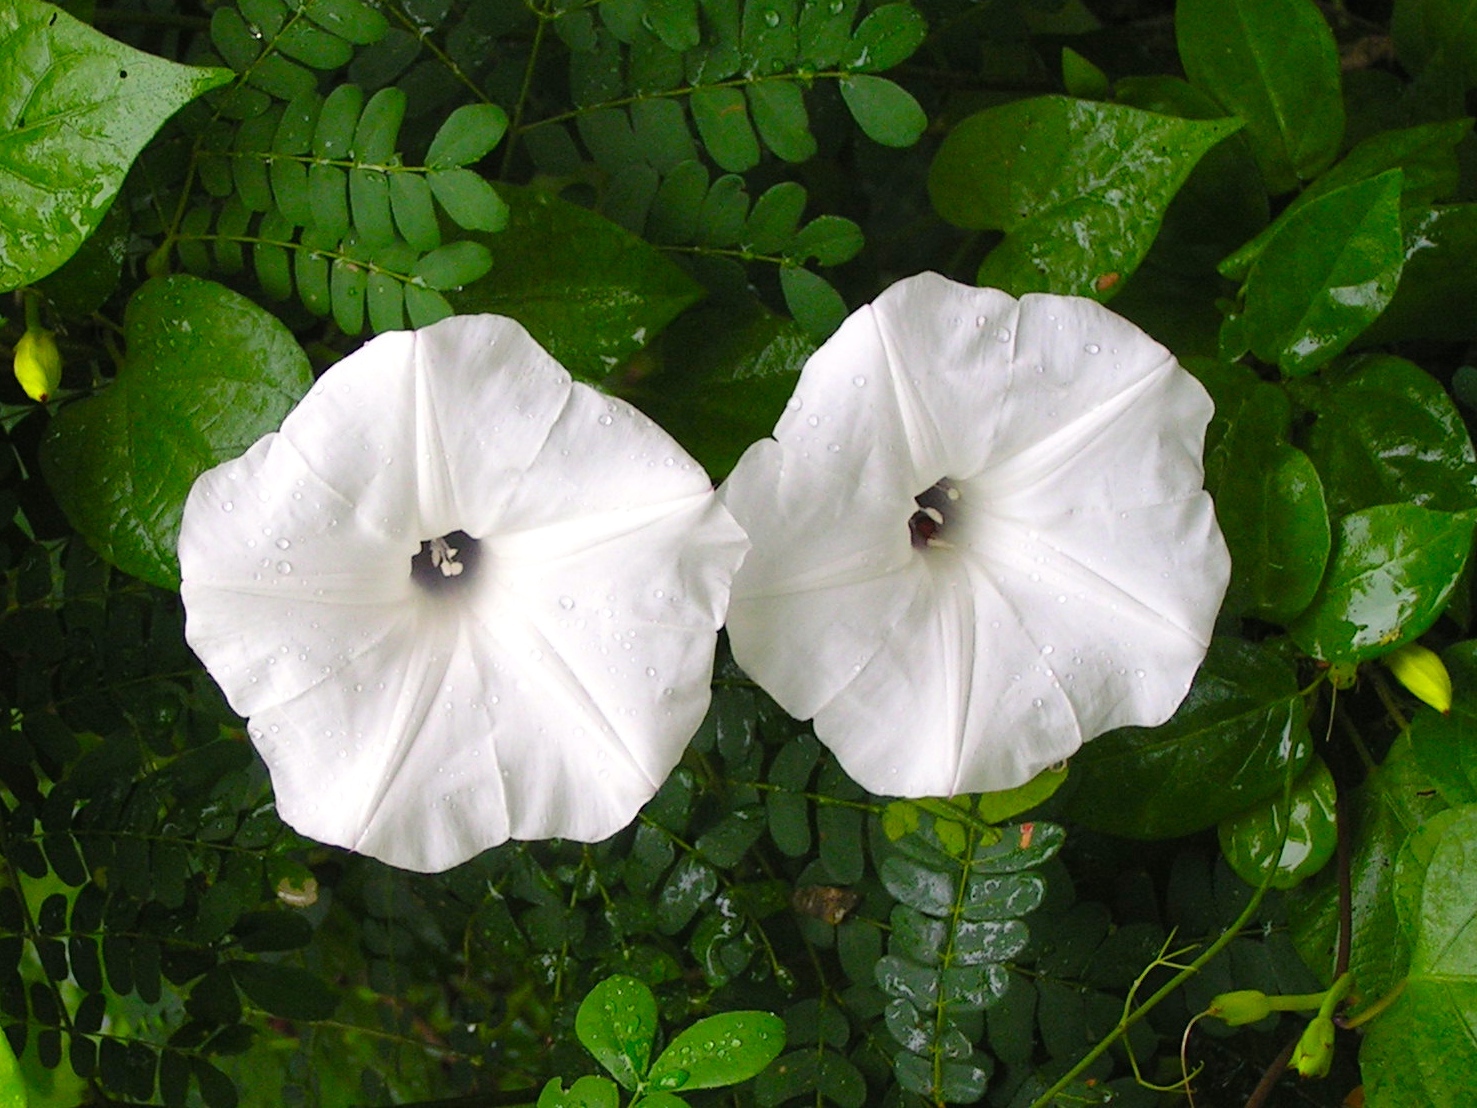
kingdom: Plantae
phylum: Tracheophyta
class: Magnoliopsida
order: Solanales
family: Convolvulaceae
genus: Ipomoea
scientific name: Ipomoea
